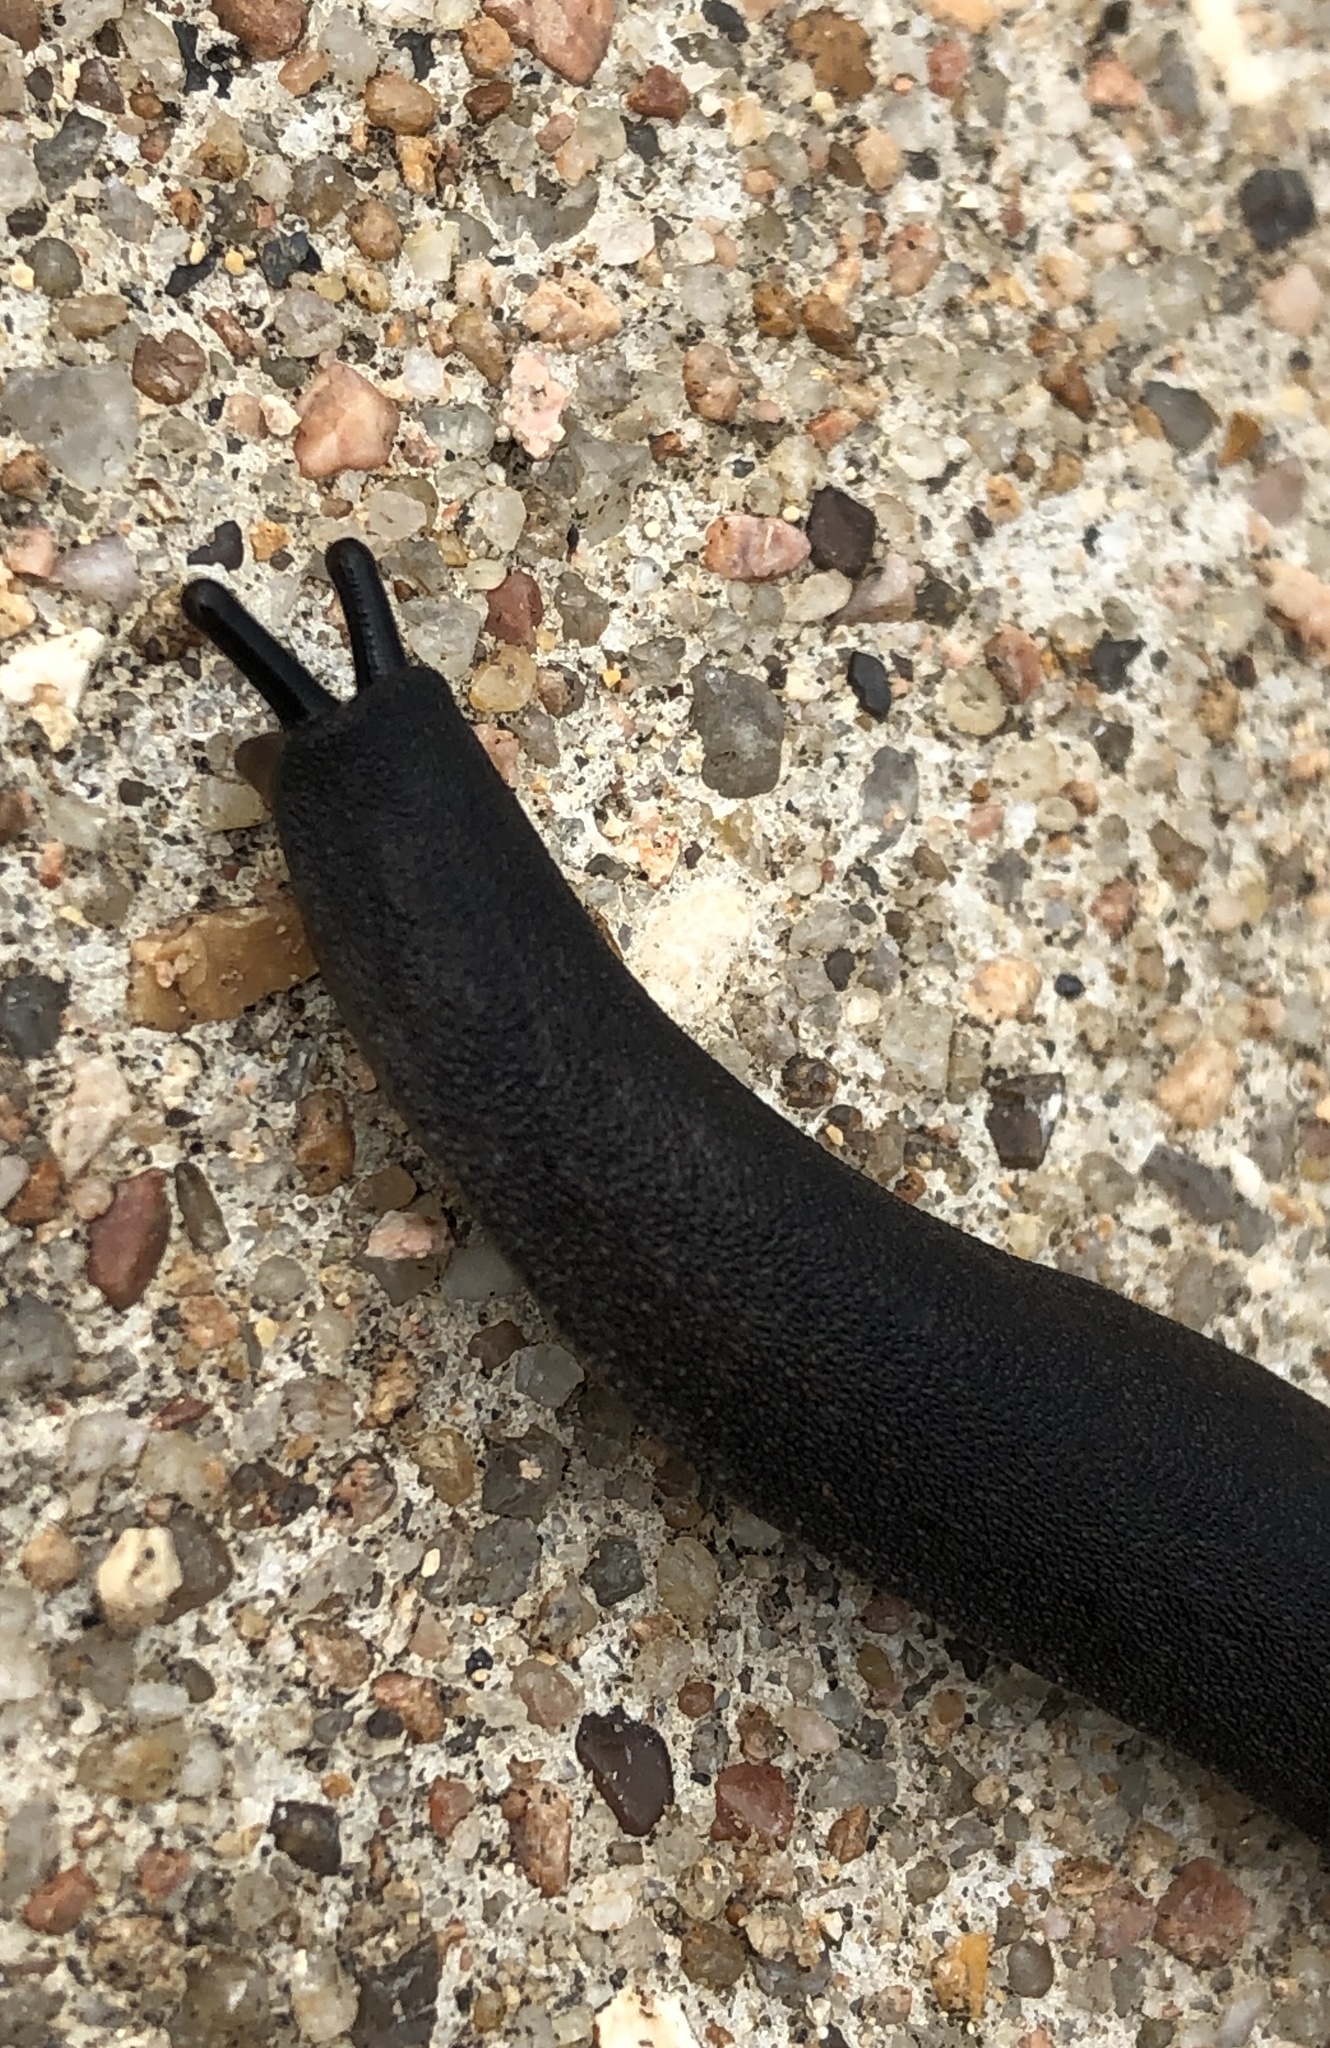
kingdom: Animalia
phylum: Mollusca
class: Gastropoda
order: Systellommatophora
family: Veronicellidae
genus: Belocaulus
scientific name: Belocaulus angustipes
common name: Black velvet leatherleaf slug
